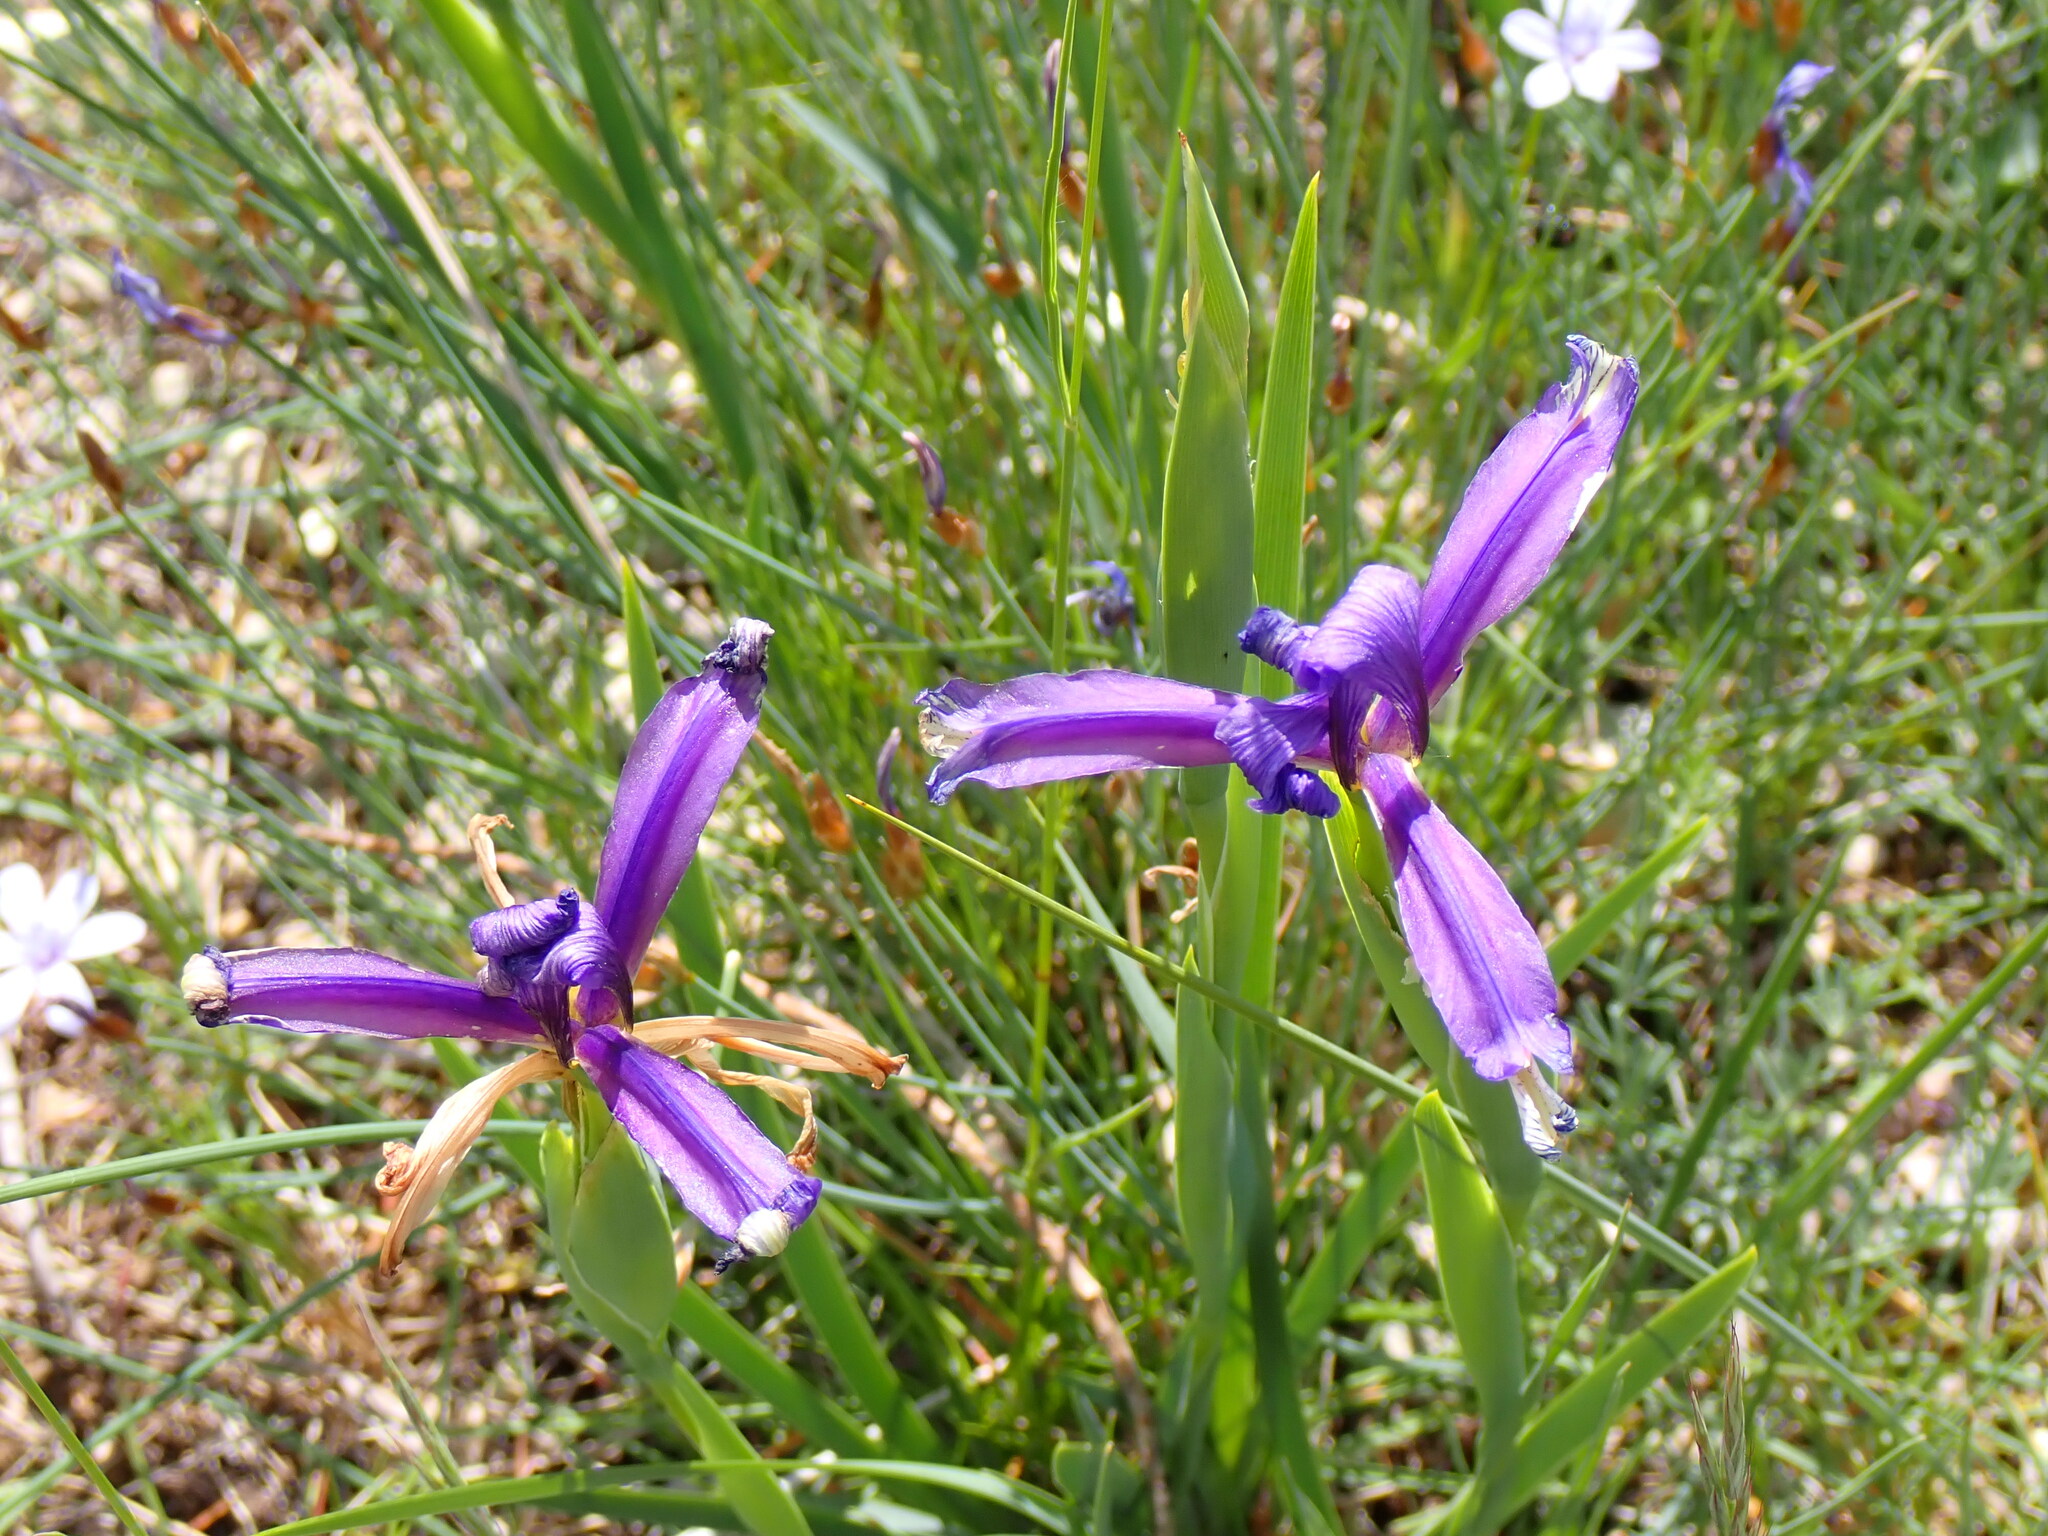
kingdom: Plantae
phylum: Tracheophyta
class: Liliopsida
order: Asparagales
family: Iridaceae
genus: Iris
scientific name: Iris reichenbachiana
